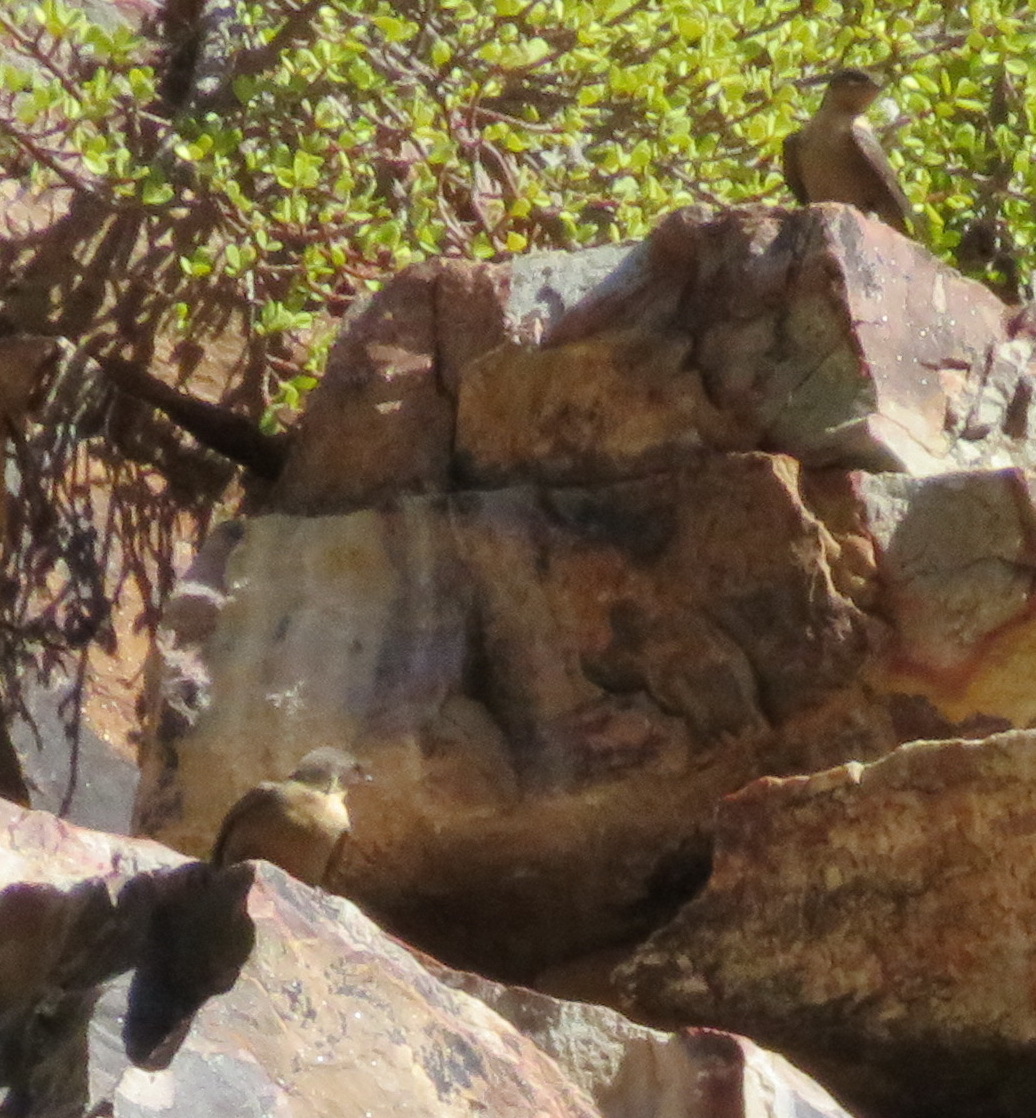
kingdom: Animalia
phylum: Chordata
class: Aves
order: Passeriformes
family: Hirundinidae
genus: Ptyonoprogne
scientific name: Ptyonoprogne fuligula
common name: Rock martin
